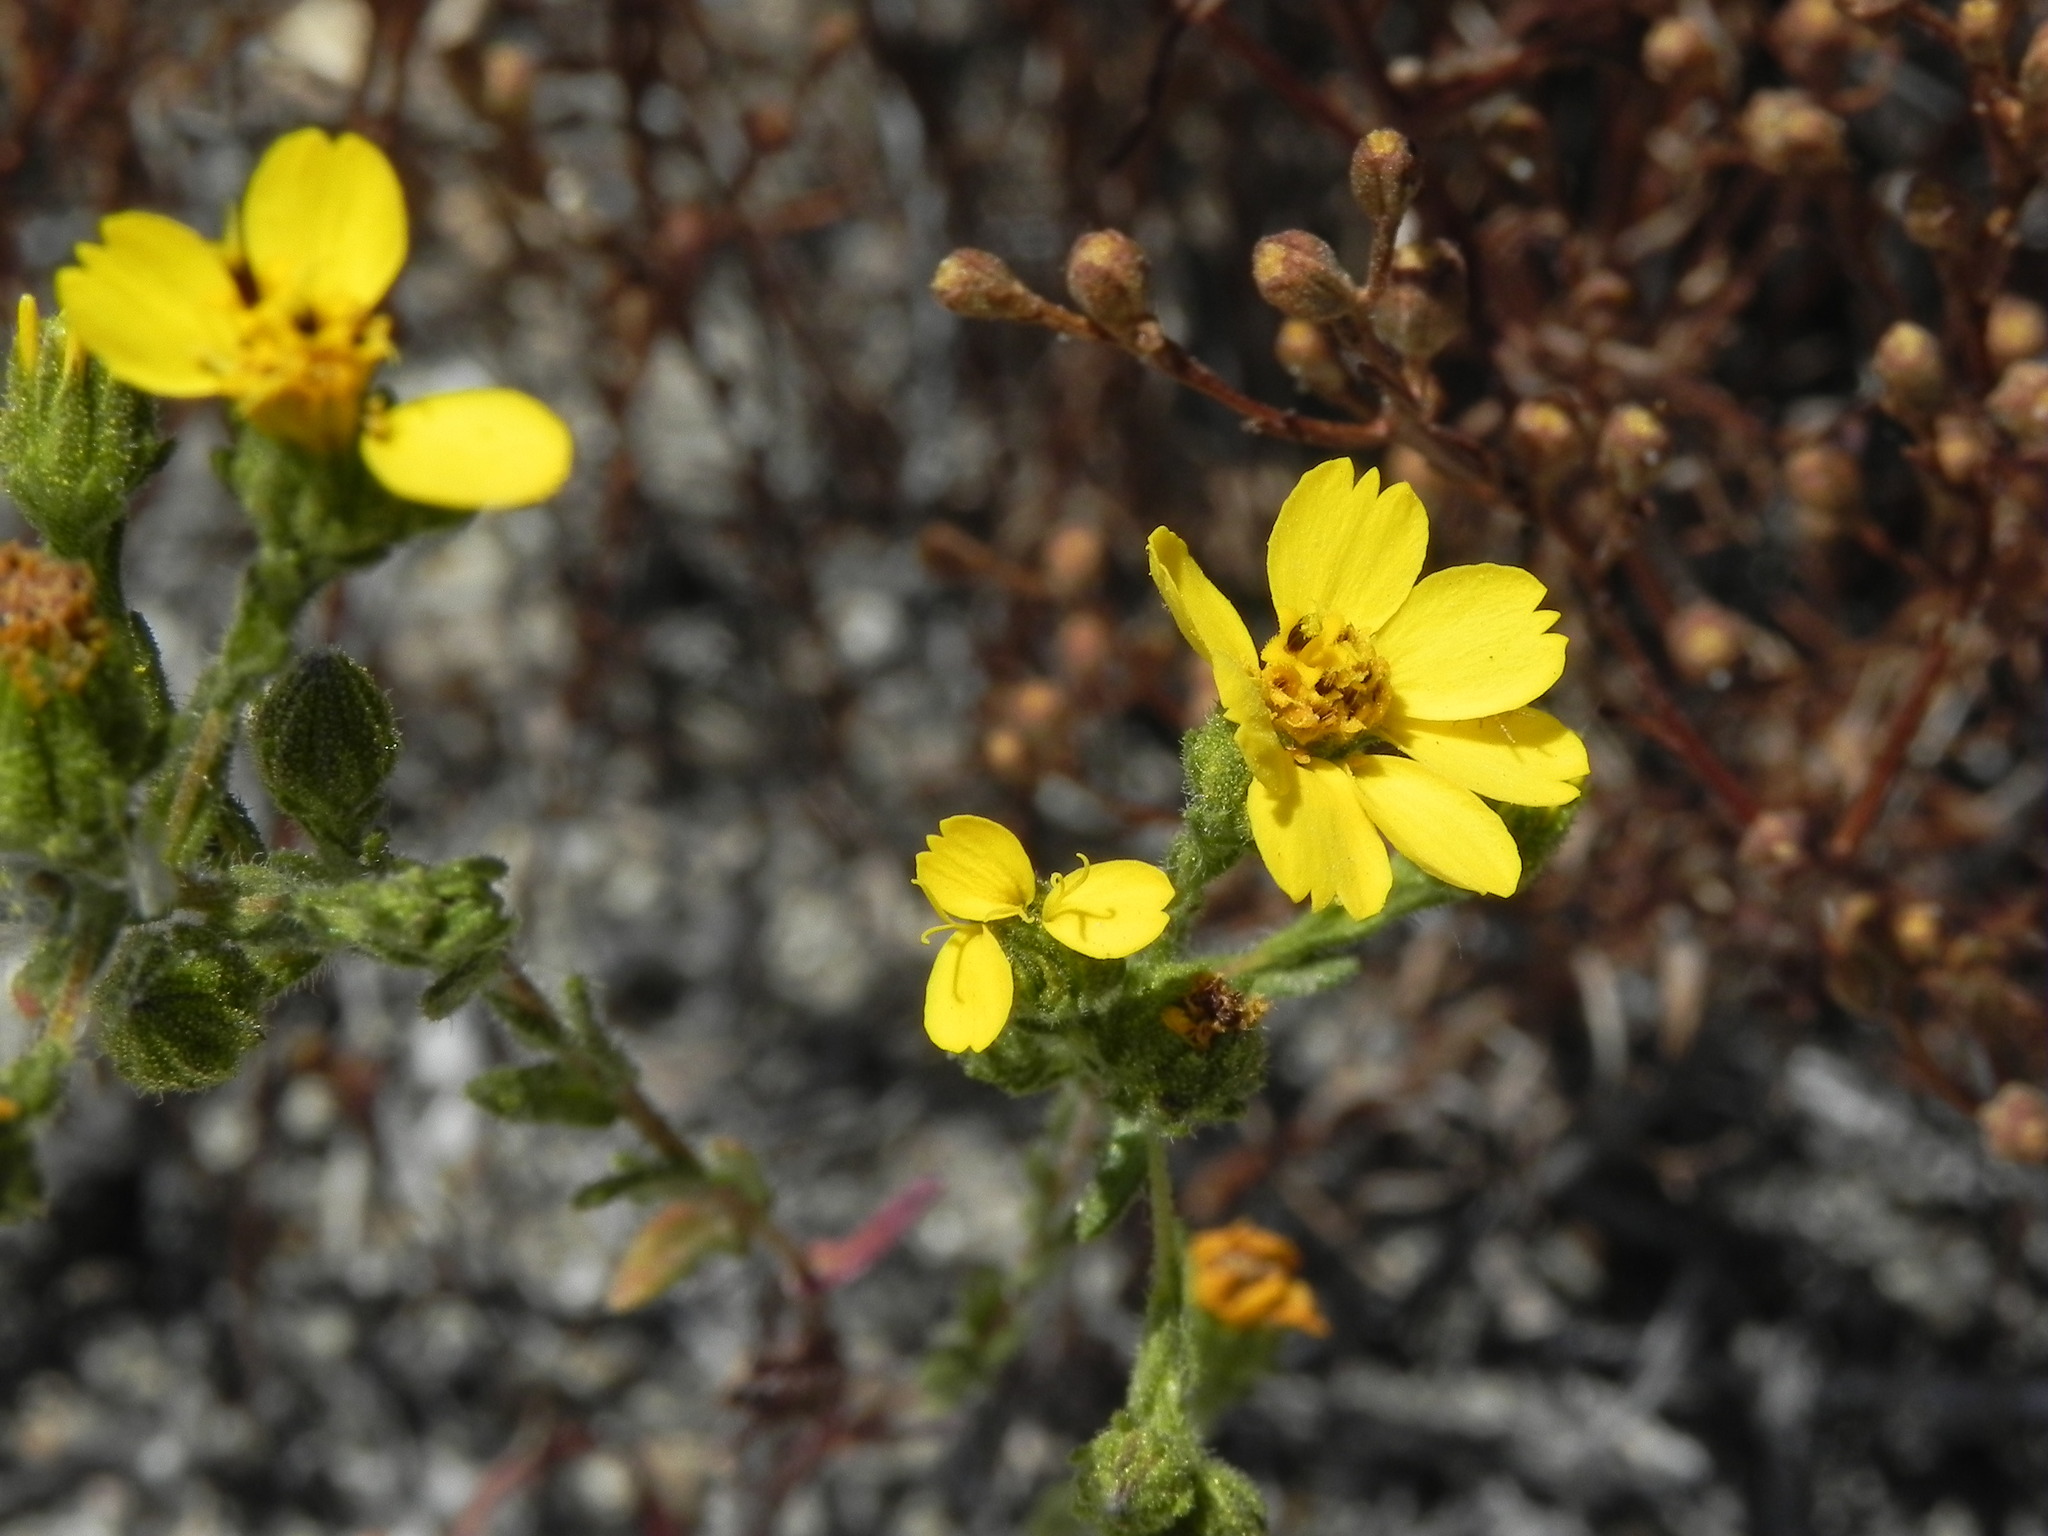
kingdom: Plantae
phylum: Tracheophyta
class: Magnoliopsida
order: Asterales
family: Asteraceae
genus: Deinandra
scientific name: Deinandra conjugens
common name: Otay tarplant
